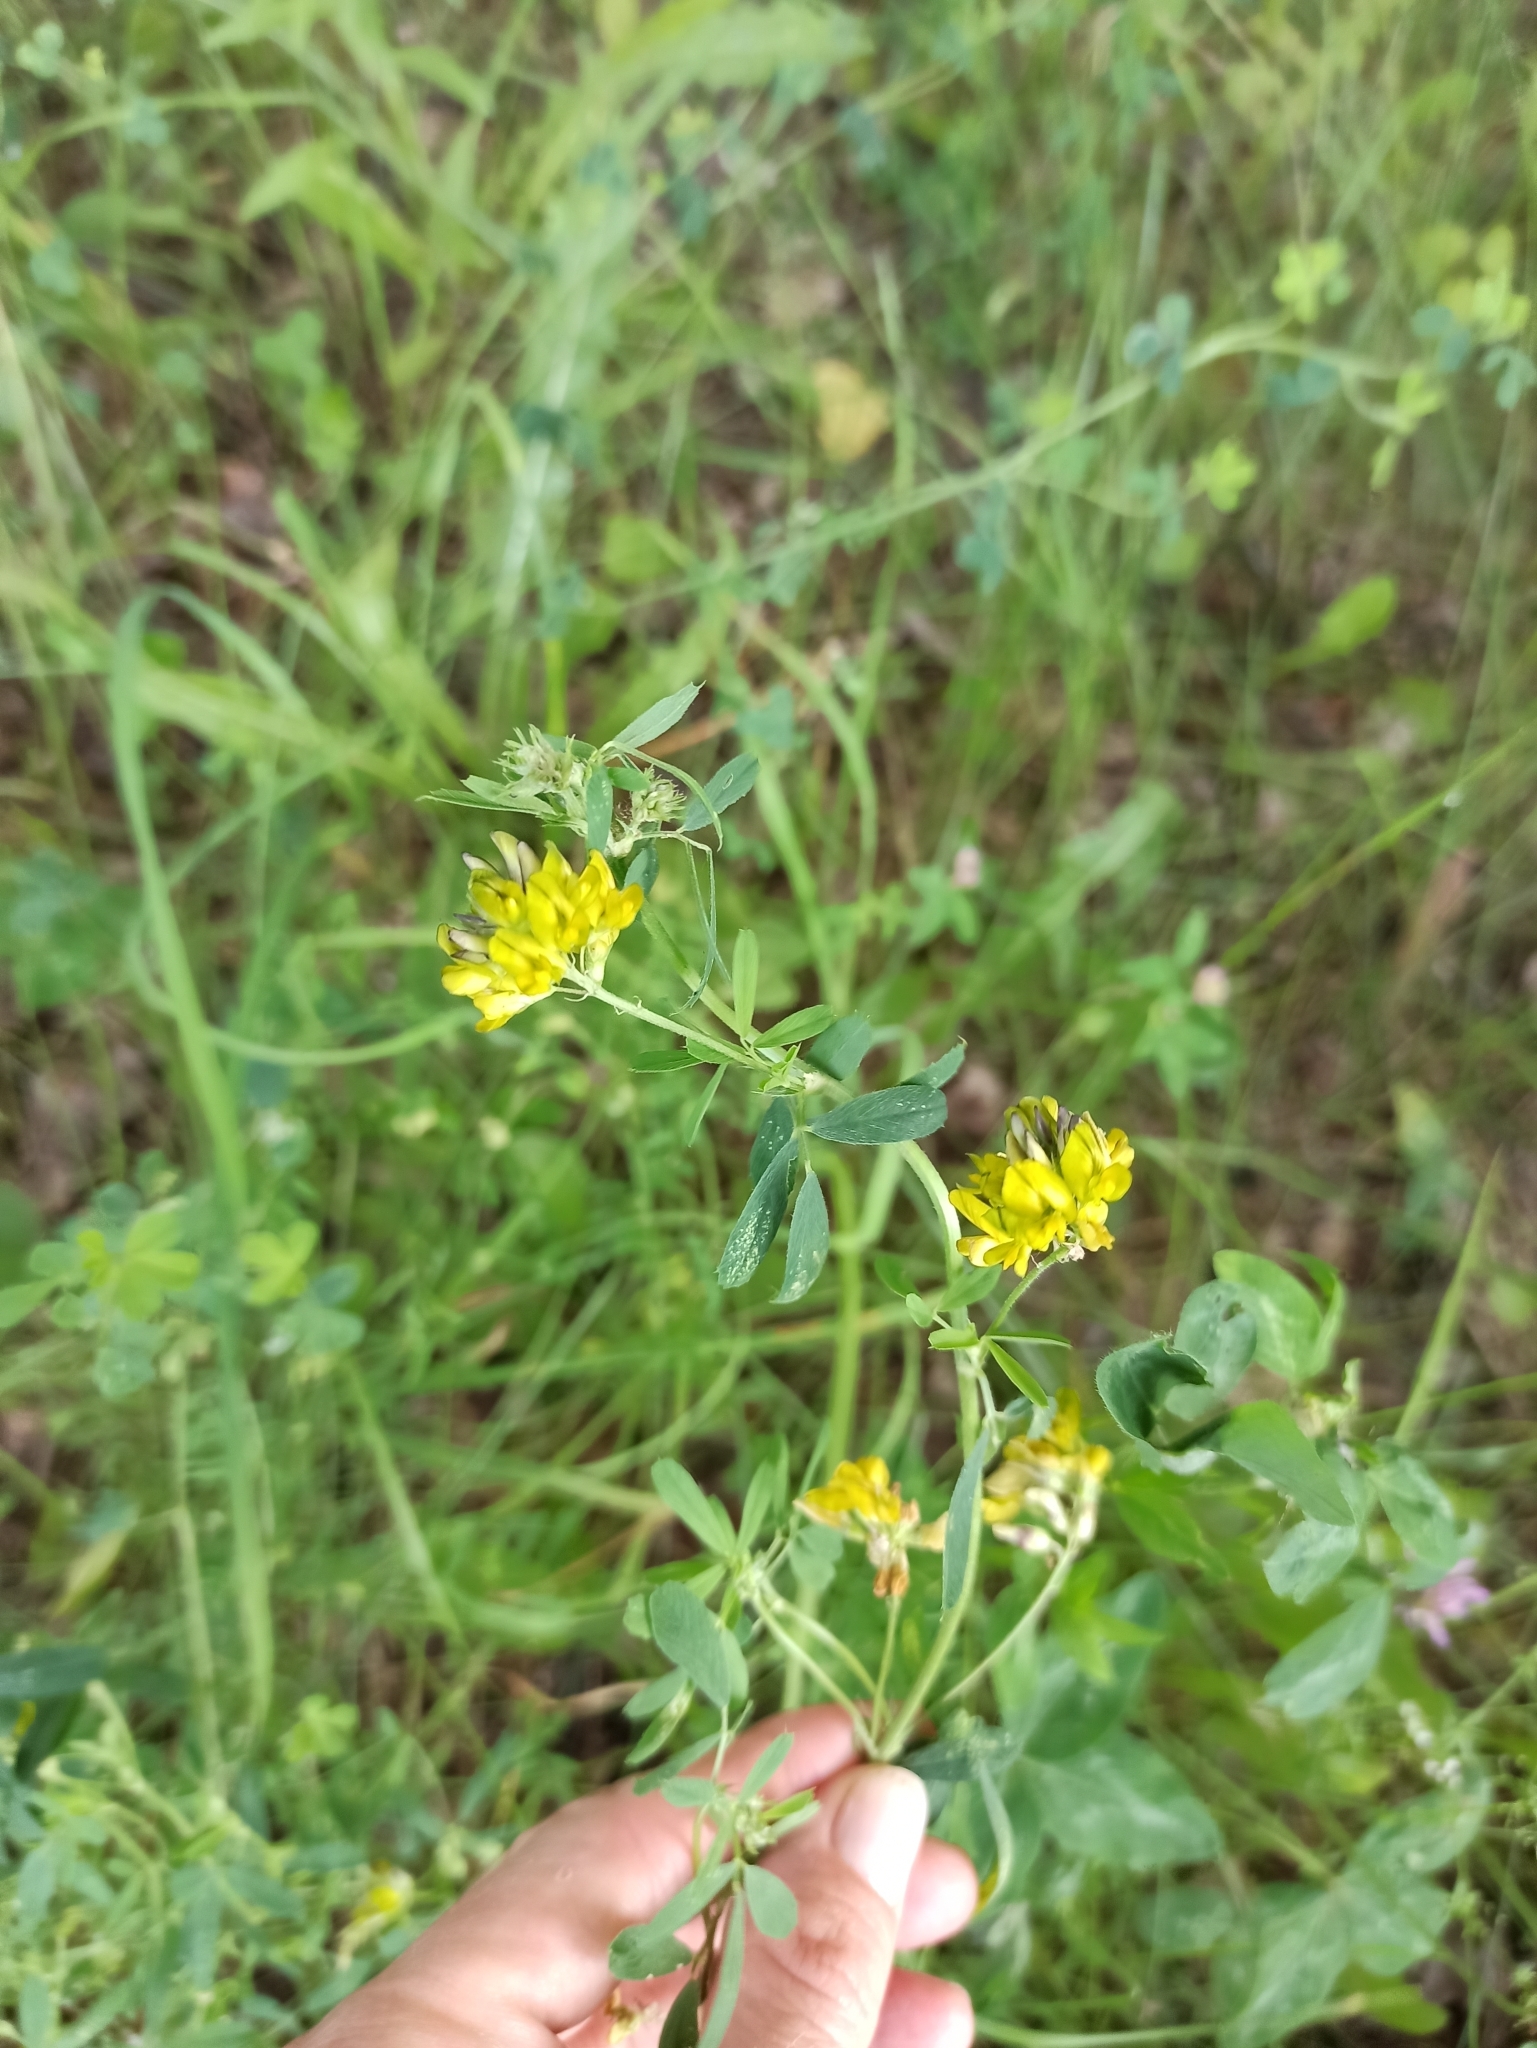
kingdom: Plantae
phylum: Tracheophyta
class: Magnoliopsida
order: Fabales
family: Fabaceae
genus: Medicago
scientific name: Medicago varia
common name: Sand lucerne
